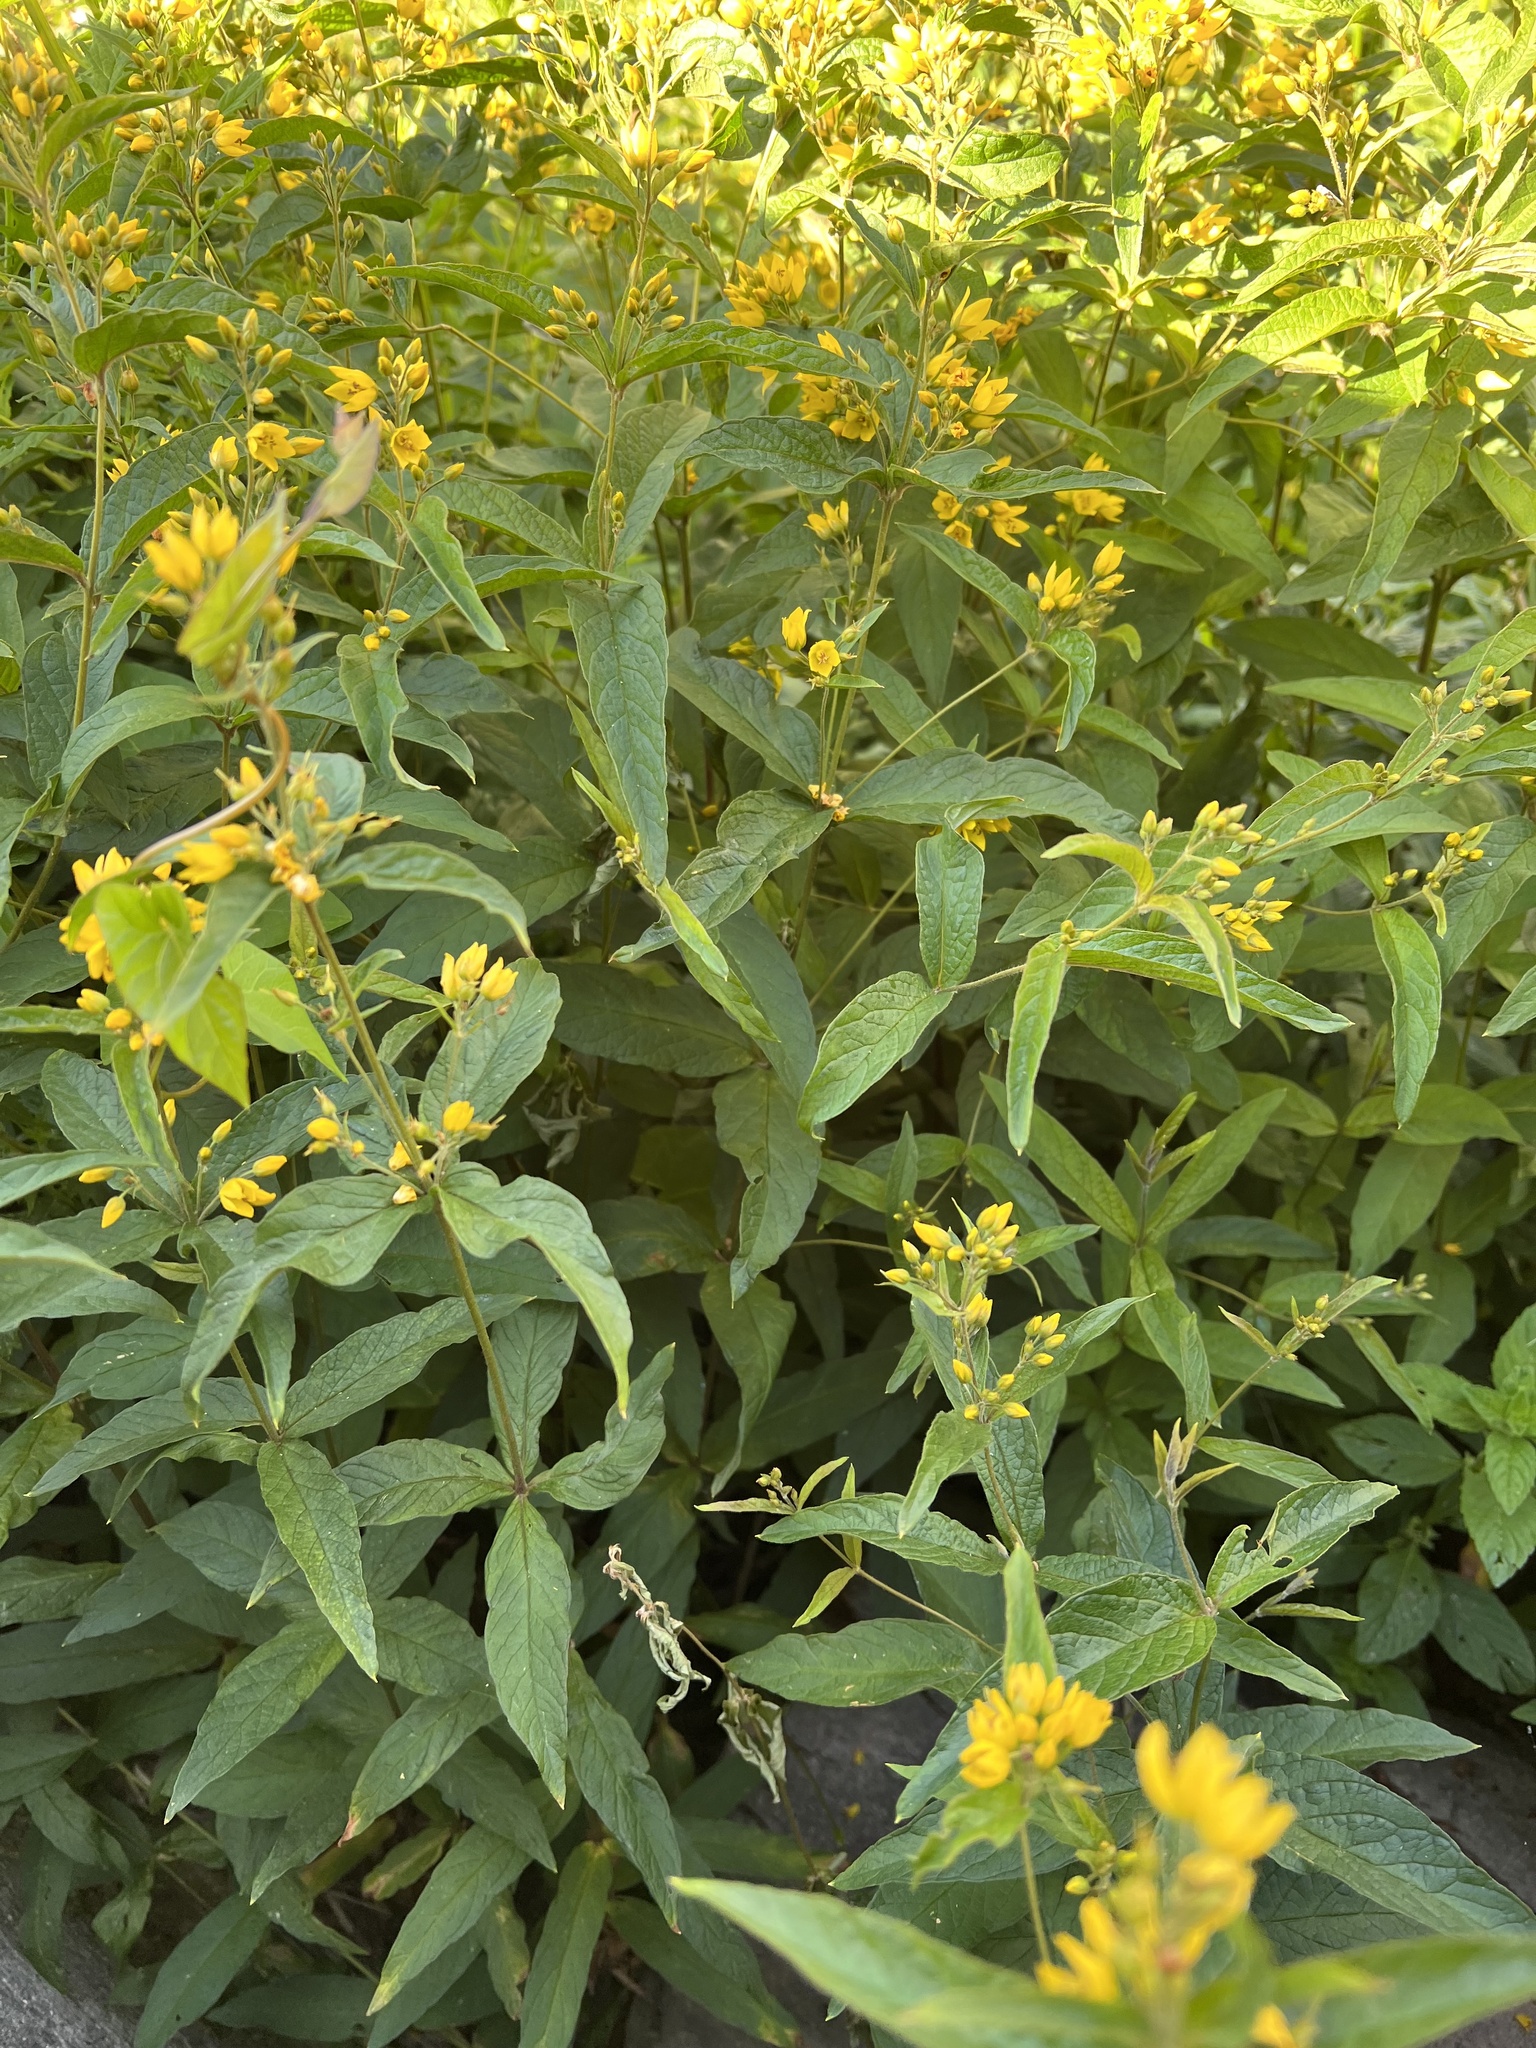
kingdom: Plantae
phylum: Tracheophyta
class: Magnoliopsida
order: Ericales
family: Primulaceae
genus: Lysimachia
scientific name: Lysimachia vulgaris
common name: Yellow loosestrife
